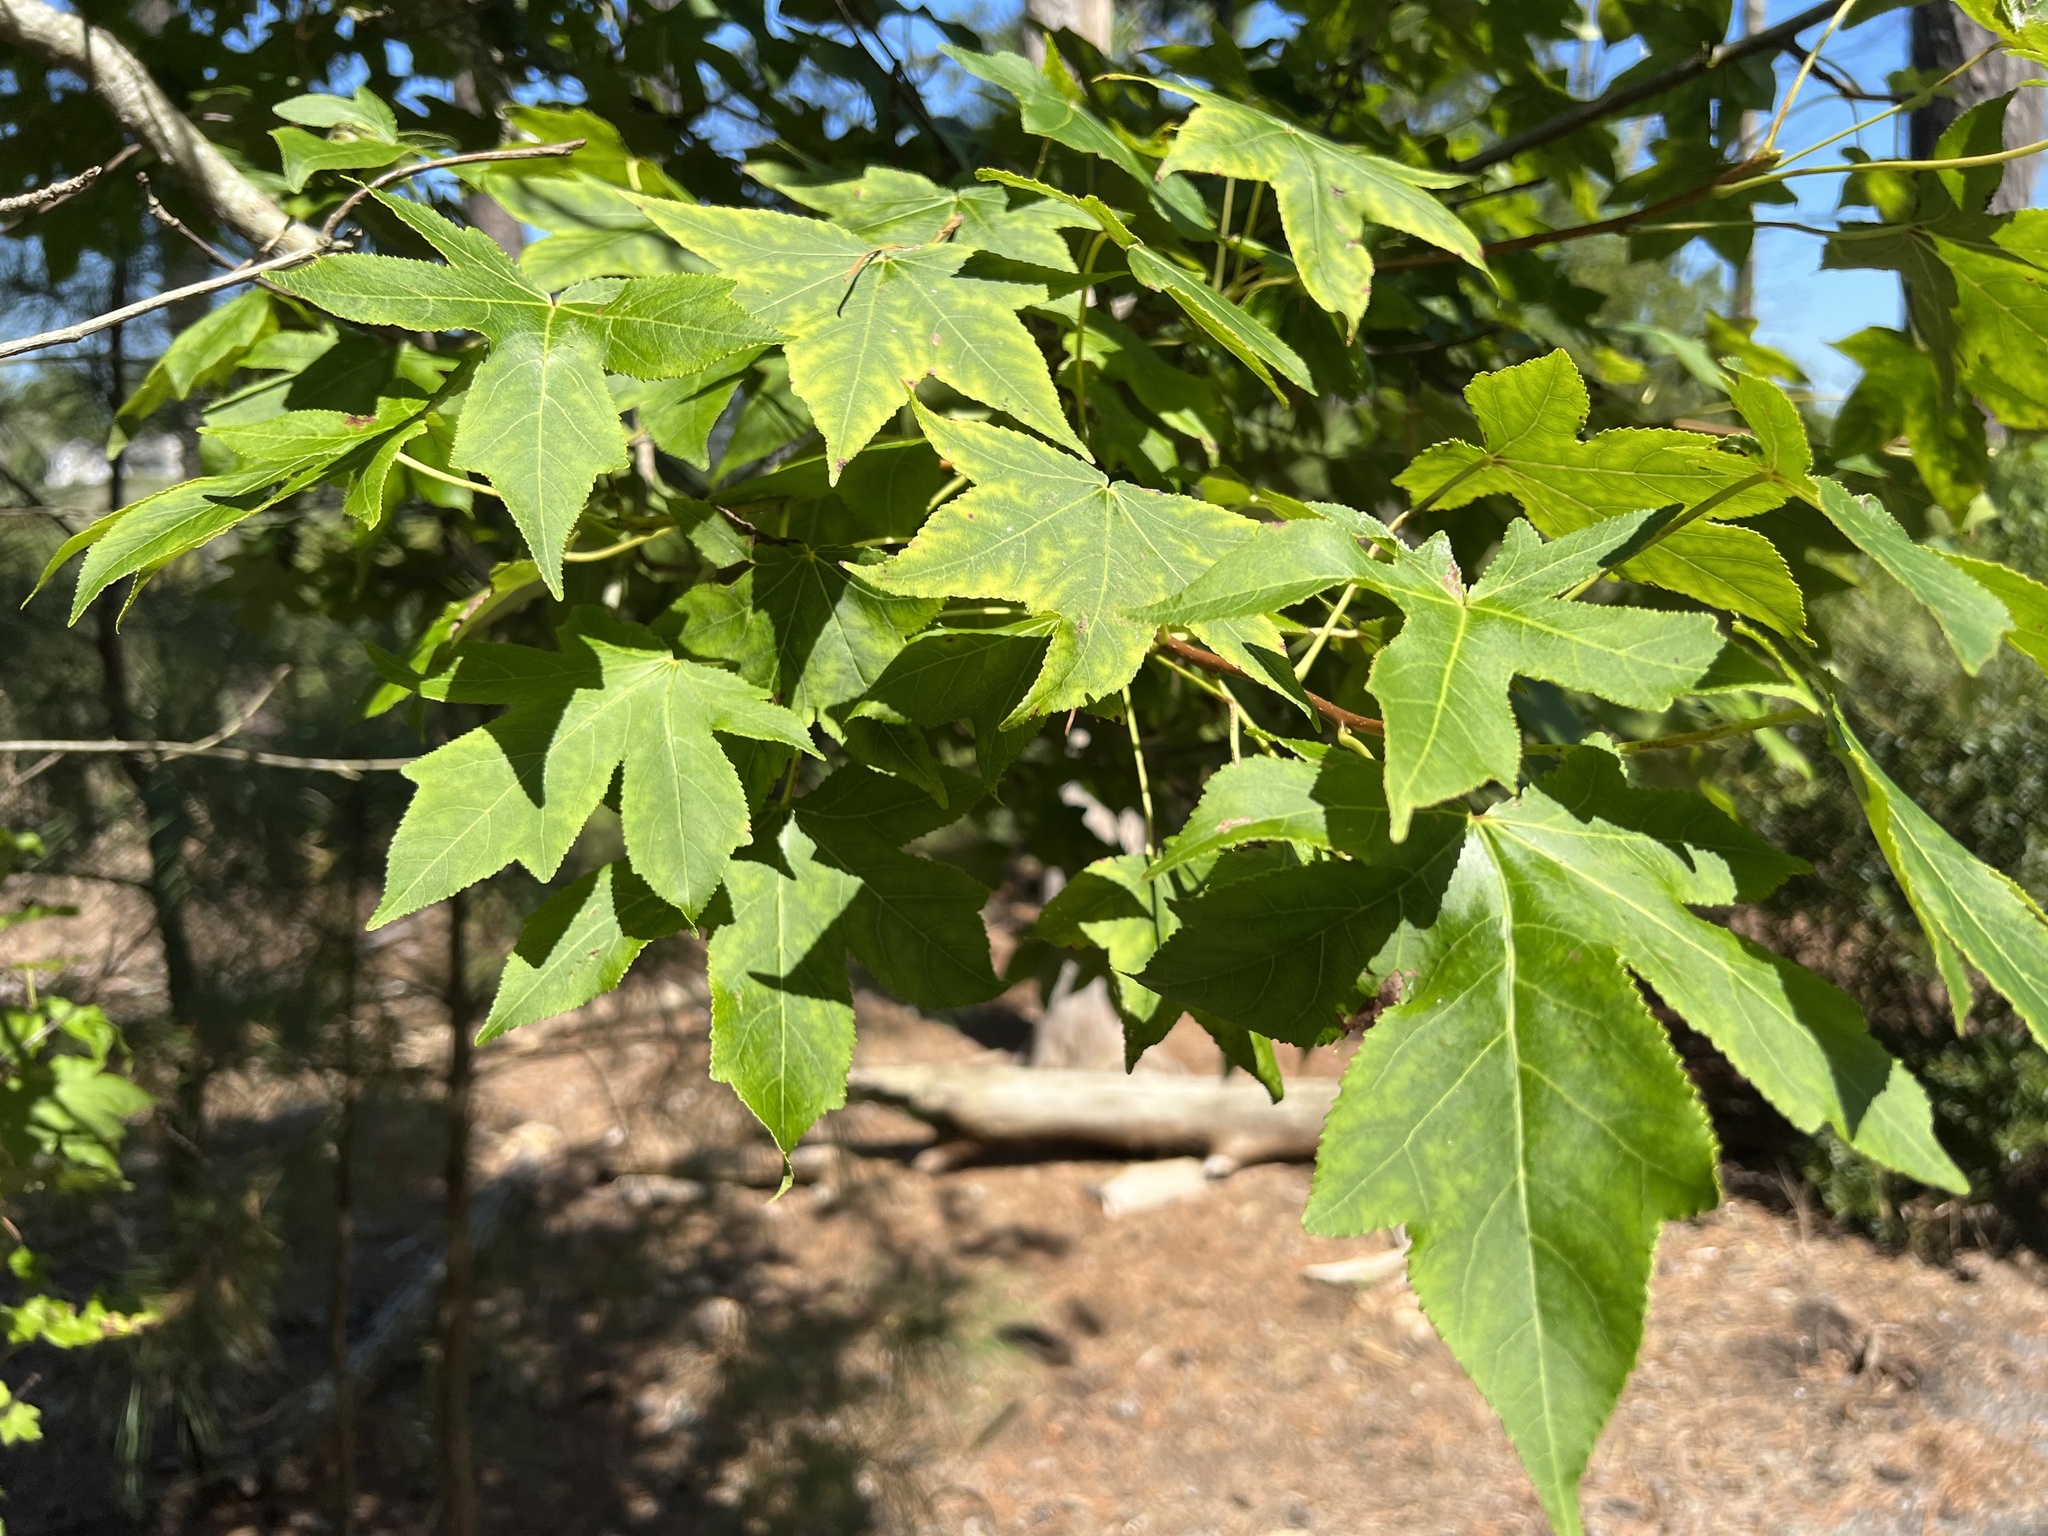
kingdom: Plantae
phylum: Tracheophyta
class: Magnoliopsida
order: Saxifragales
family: Altingiaceae
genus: Liquidambar
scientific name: Liquidambar styraciflua
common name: Sweet gum
